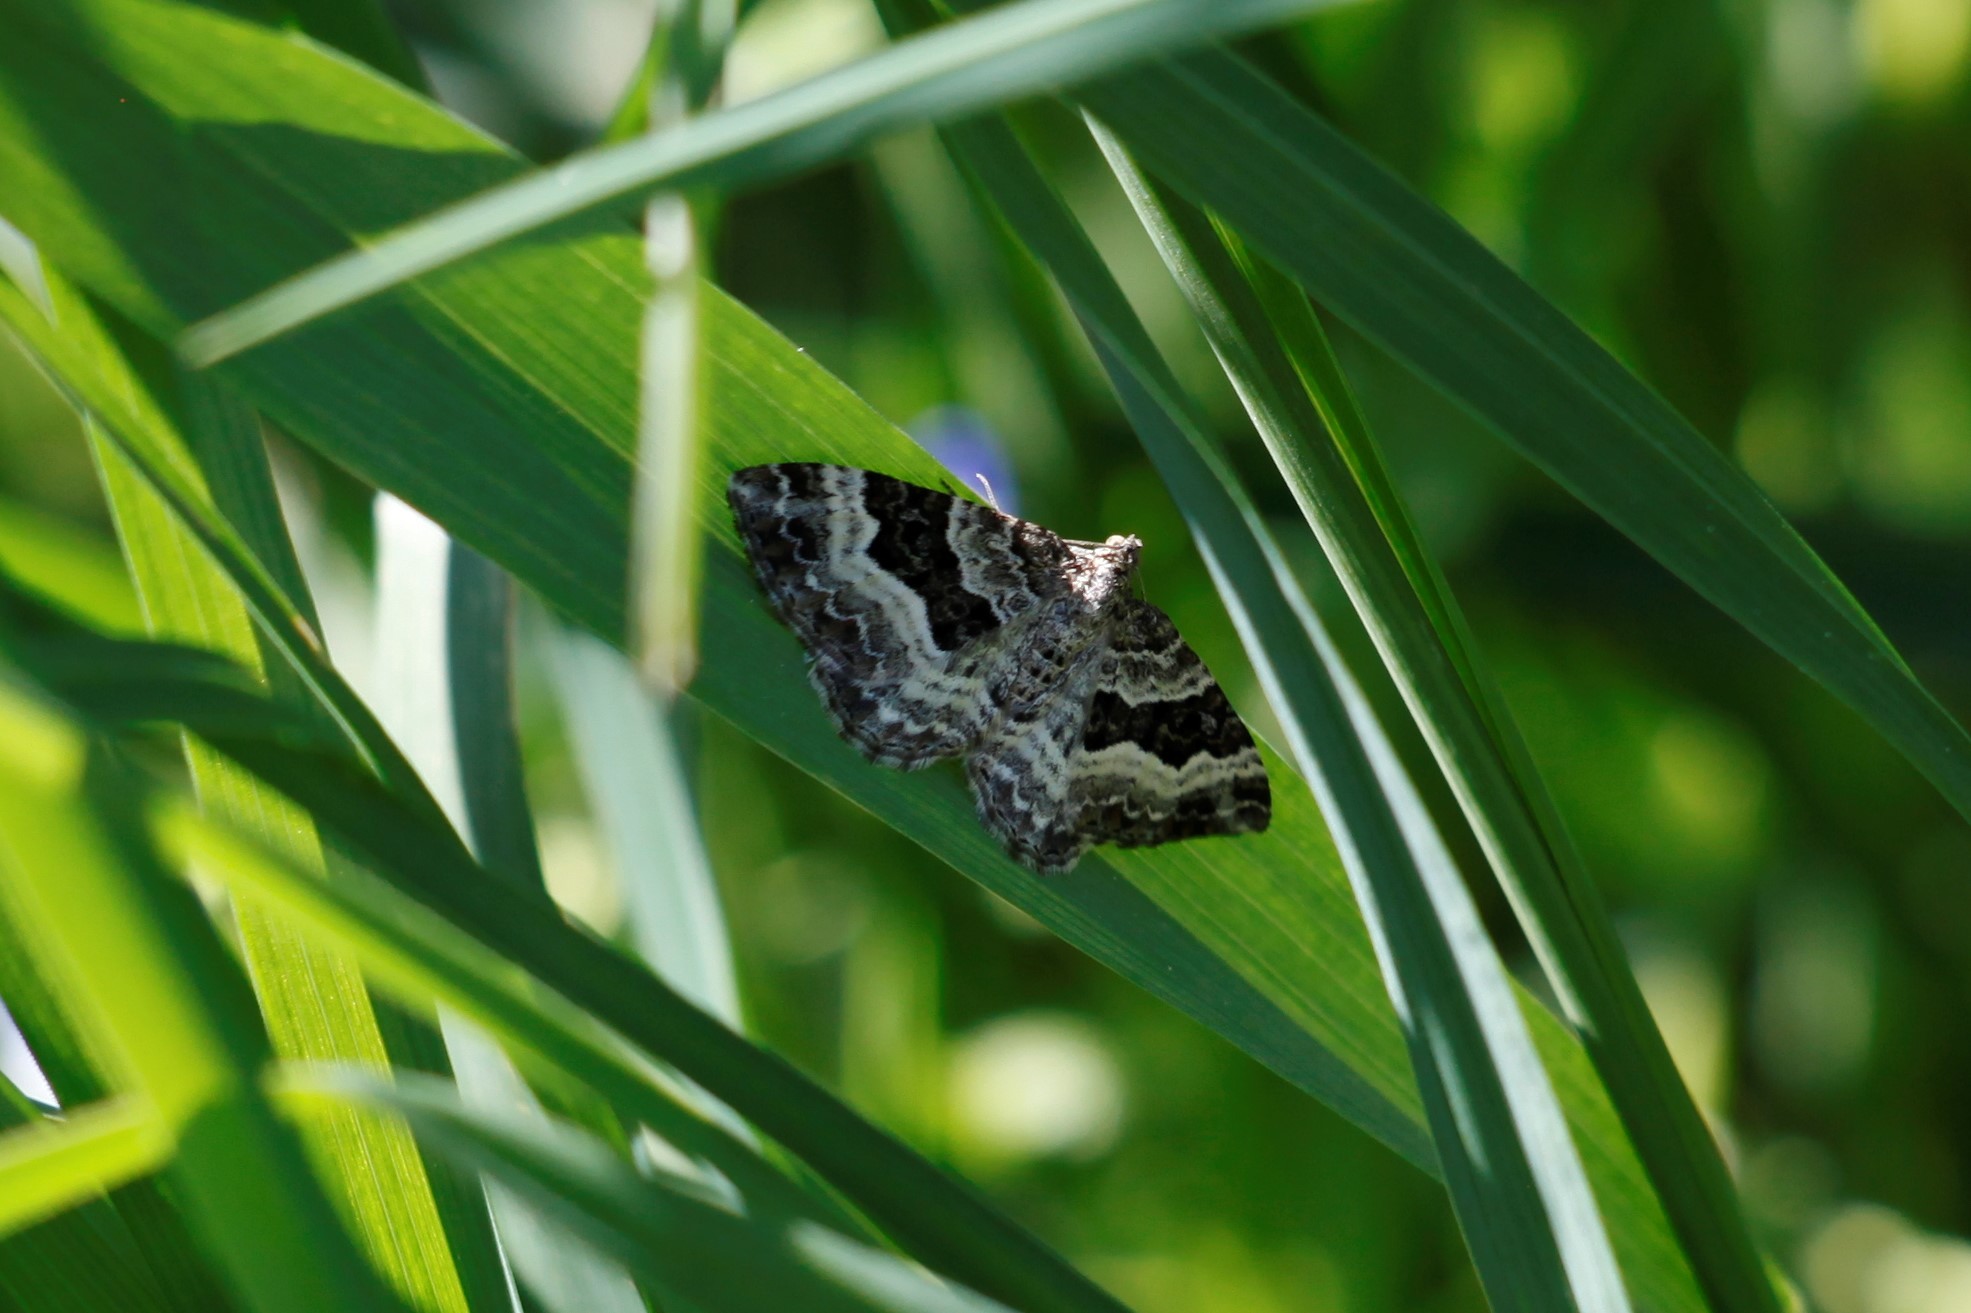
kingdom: Animalia
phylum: Arthropoda
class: Insecta
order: Lepidoptera
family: Geometridae
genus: Epirrhoe
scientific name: Epirrhoe alternata
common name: Common carpet
